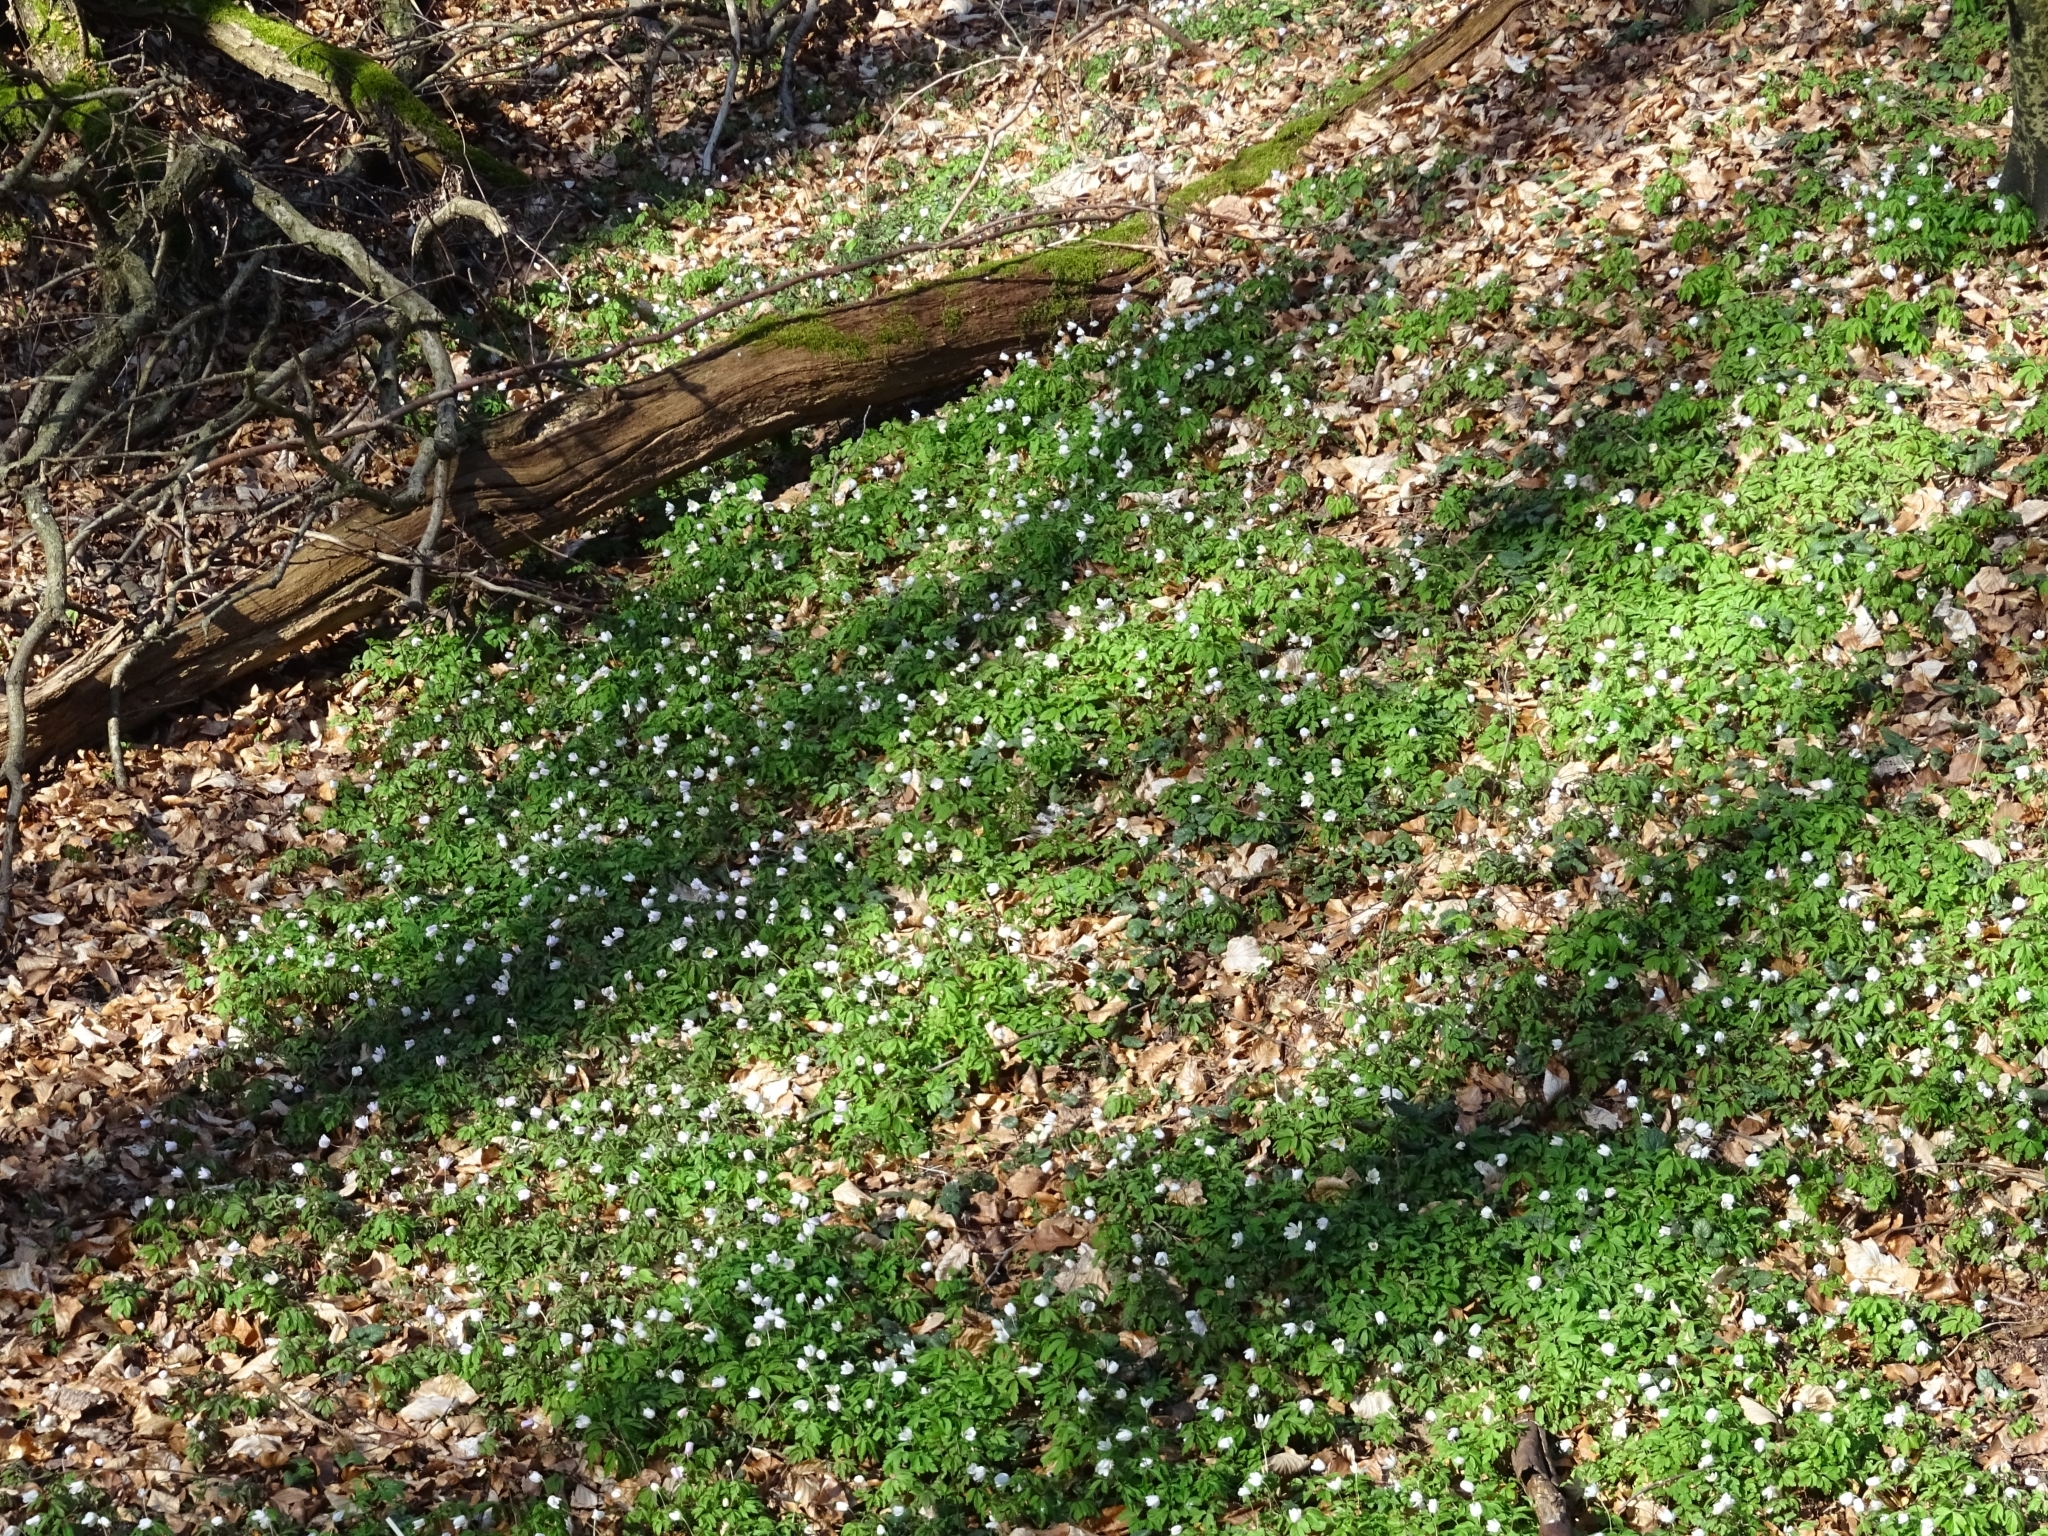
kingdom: Plantae
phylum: Tracheophyta
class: Magnoliopsida
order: Ranunculales
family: Ranunculaceae
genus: Anemone
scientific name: Anemone nemorosa
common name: Wood anemone
